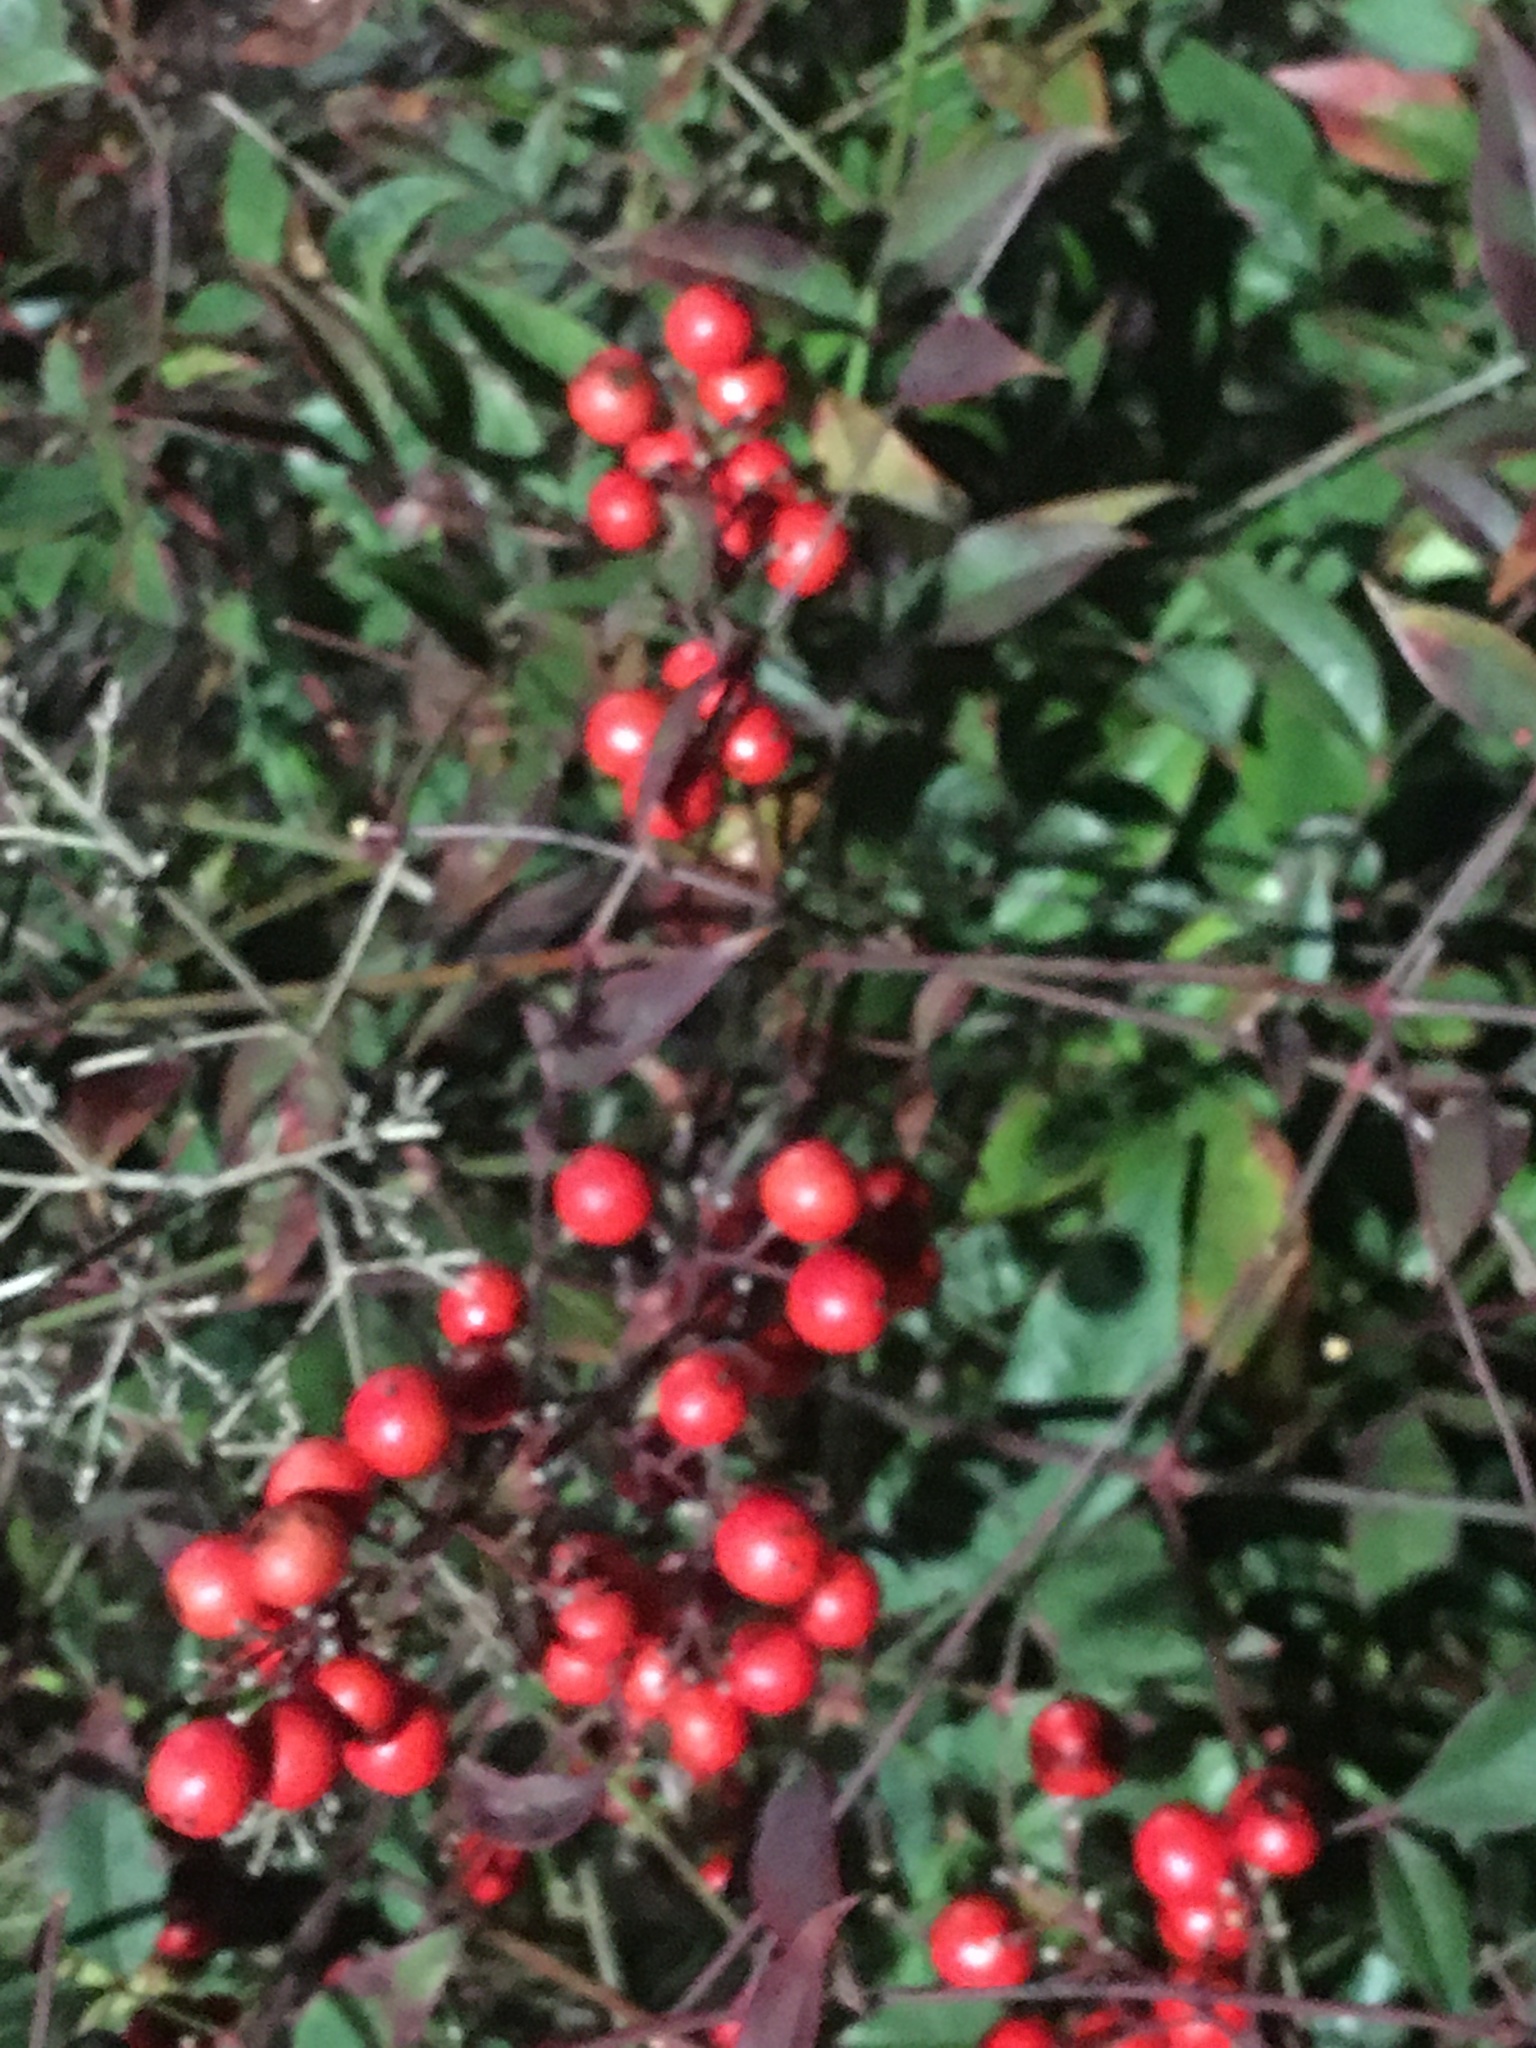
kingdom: Plantae
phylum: Tracheophyta
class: Magnoliopsida
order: Ranunculales
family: Berberidaceae
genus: Nandina
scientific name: Nandina domestica
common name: Sacred bamboo
